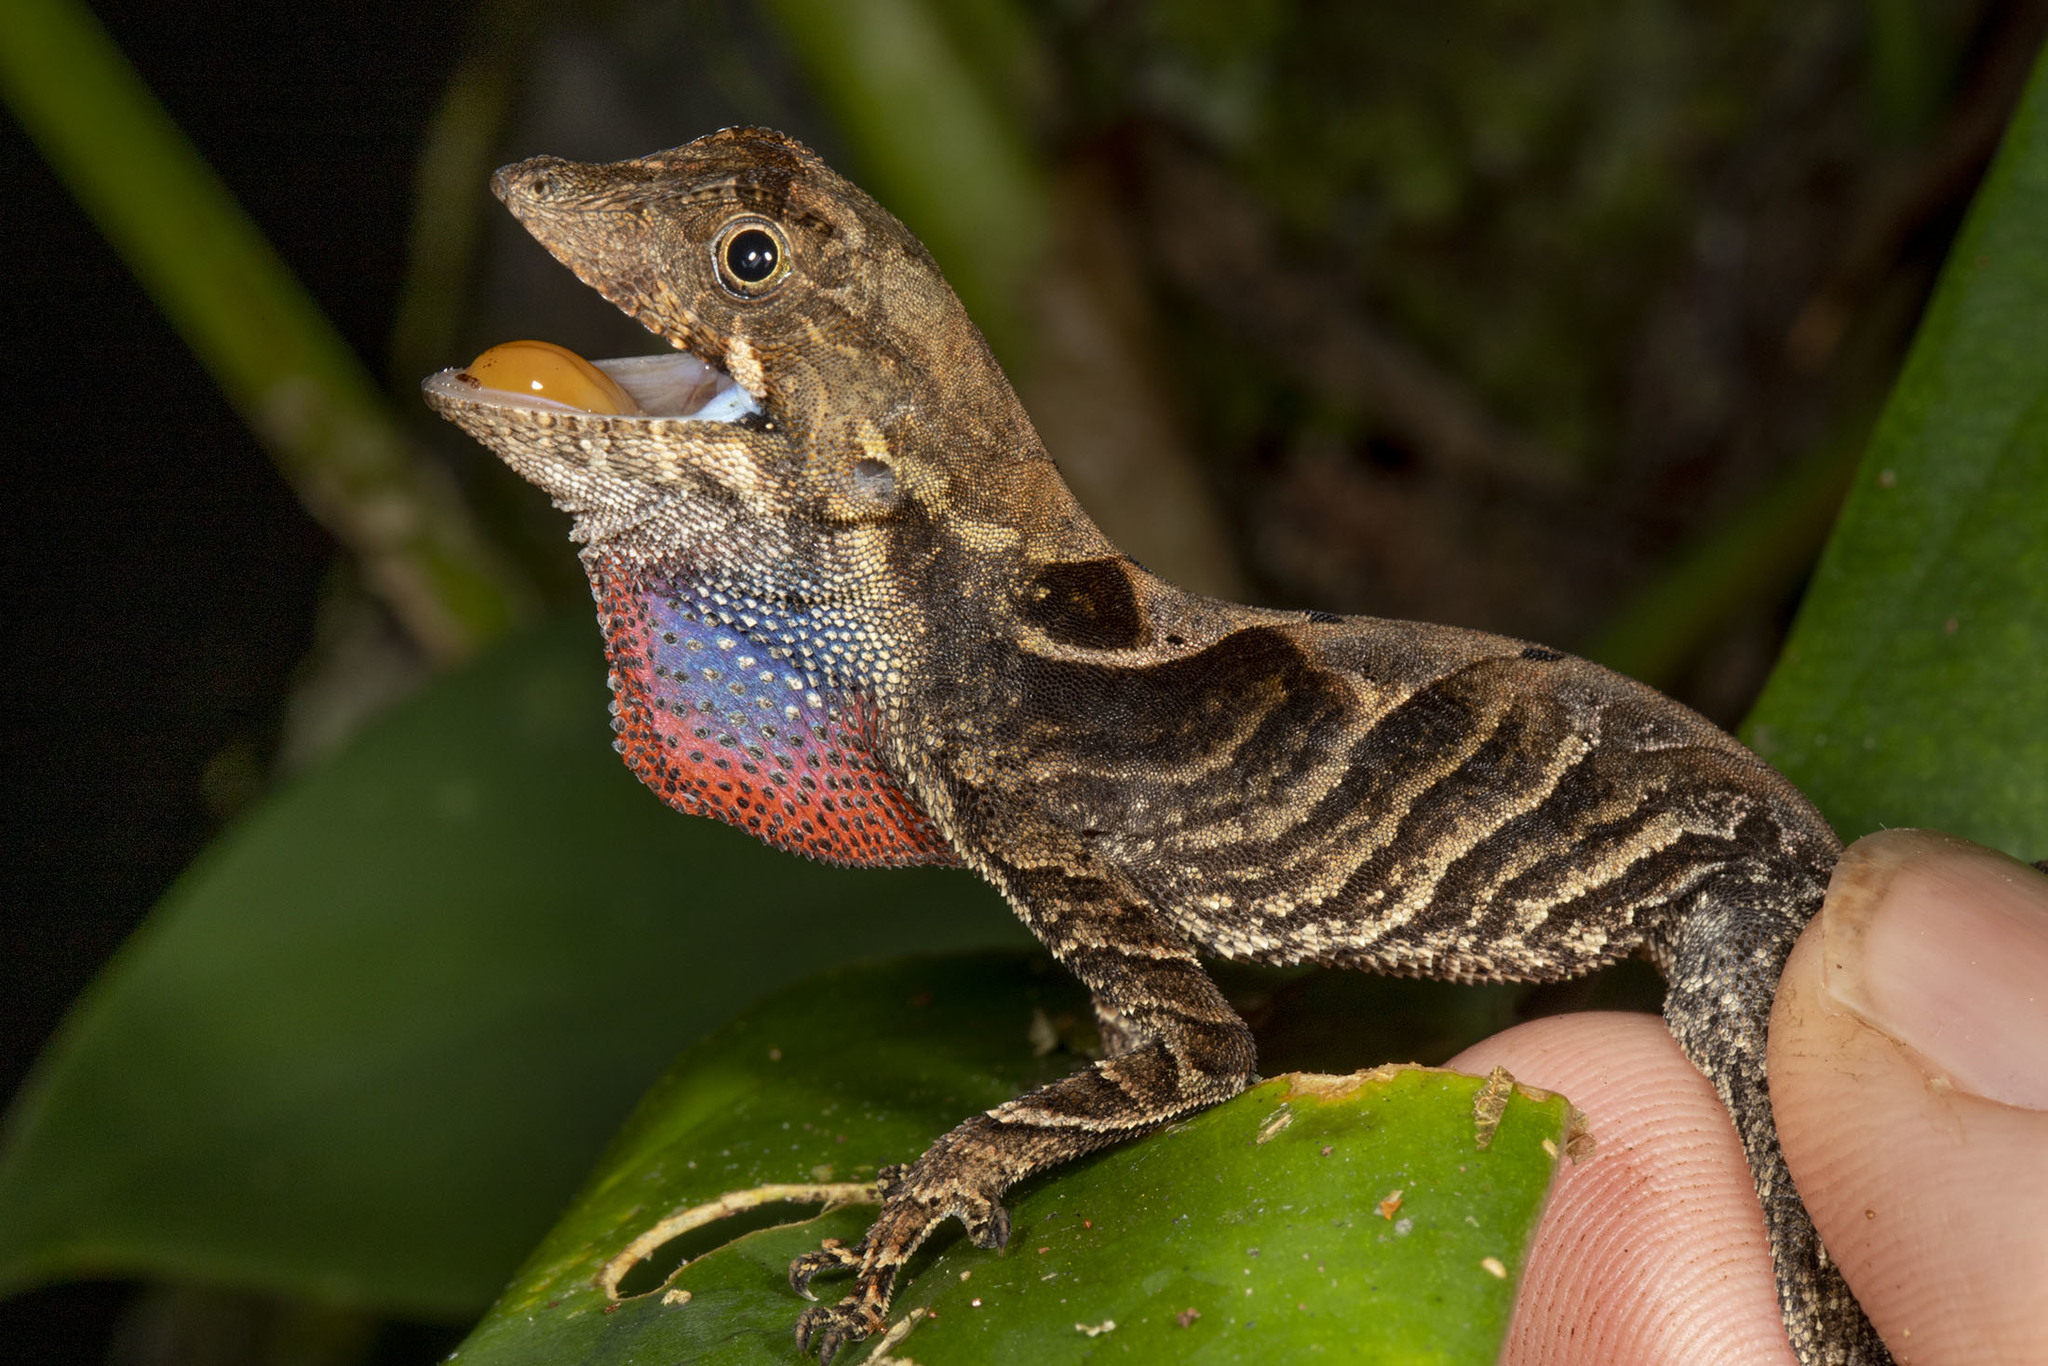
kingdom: Animalia
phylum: Chordata
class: Squamata
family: Dactyloidae
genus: Anolis
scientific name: Anolis scypheus
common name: Yellow-tongued anole
